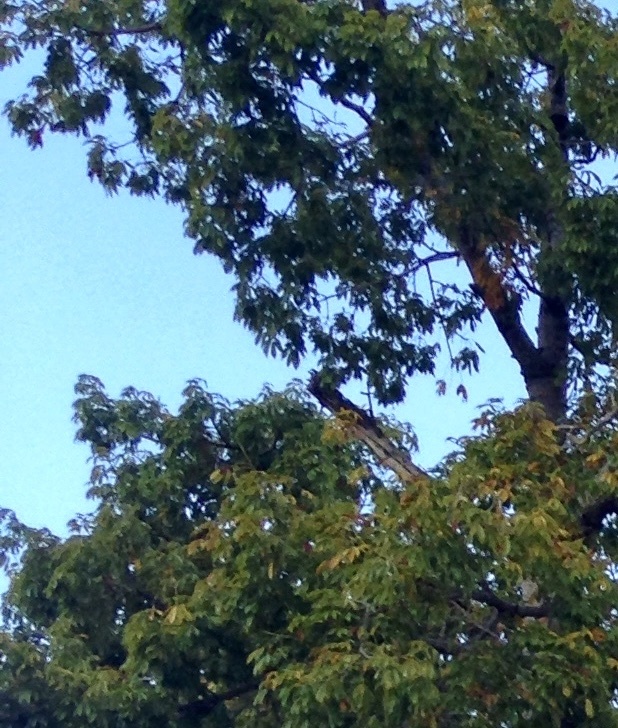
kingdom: Plantae
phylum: Tracheophyta
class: Magnoliopsida
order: Malvales
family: Malvaceae
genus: Ceiba
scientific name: Ceiba pentandra
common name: Kapok
